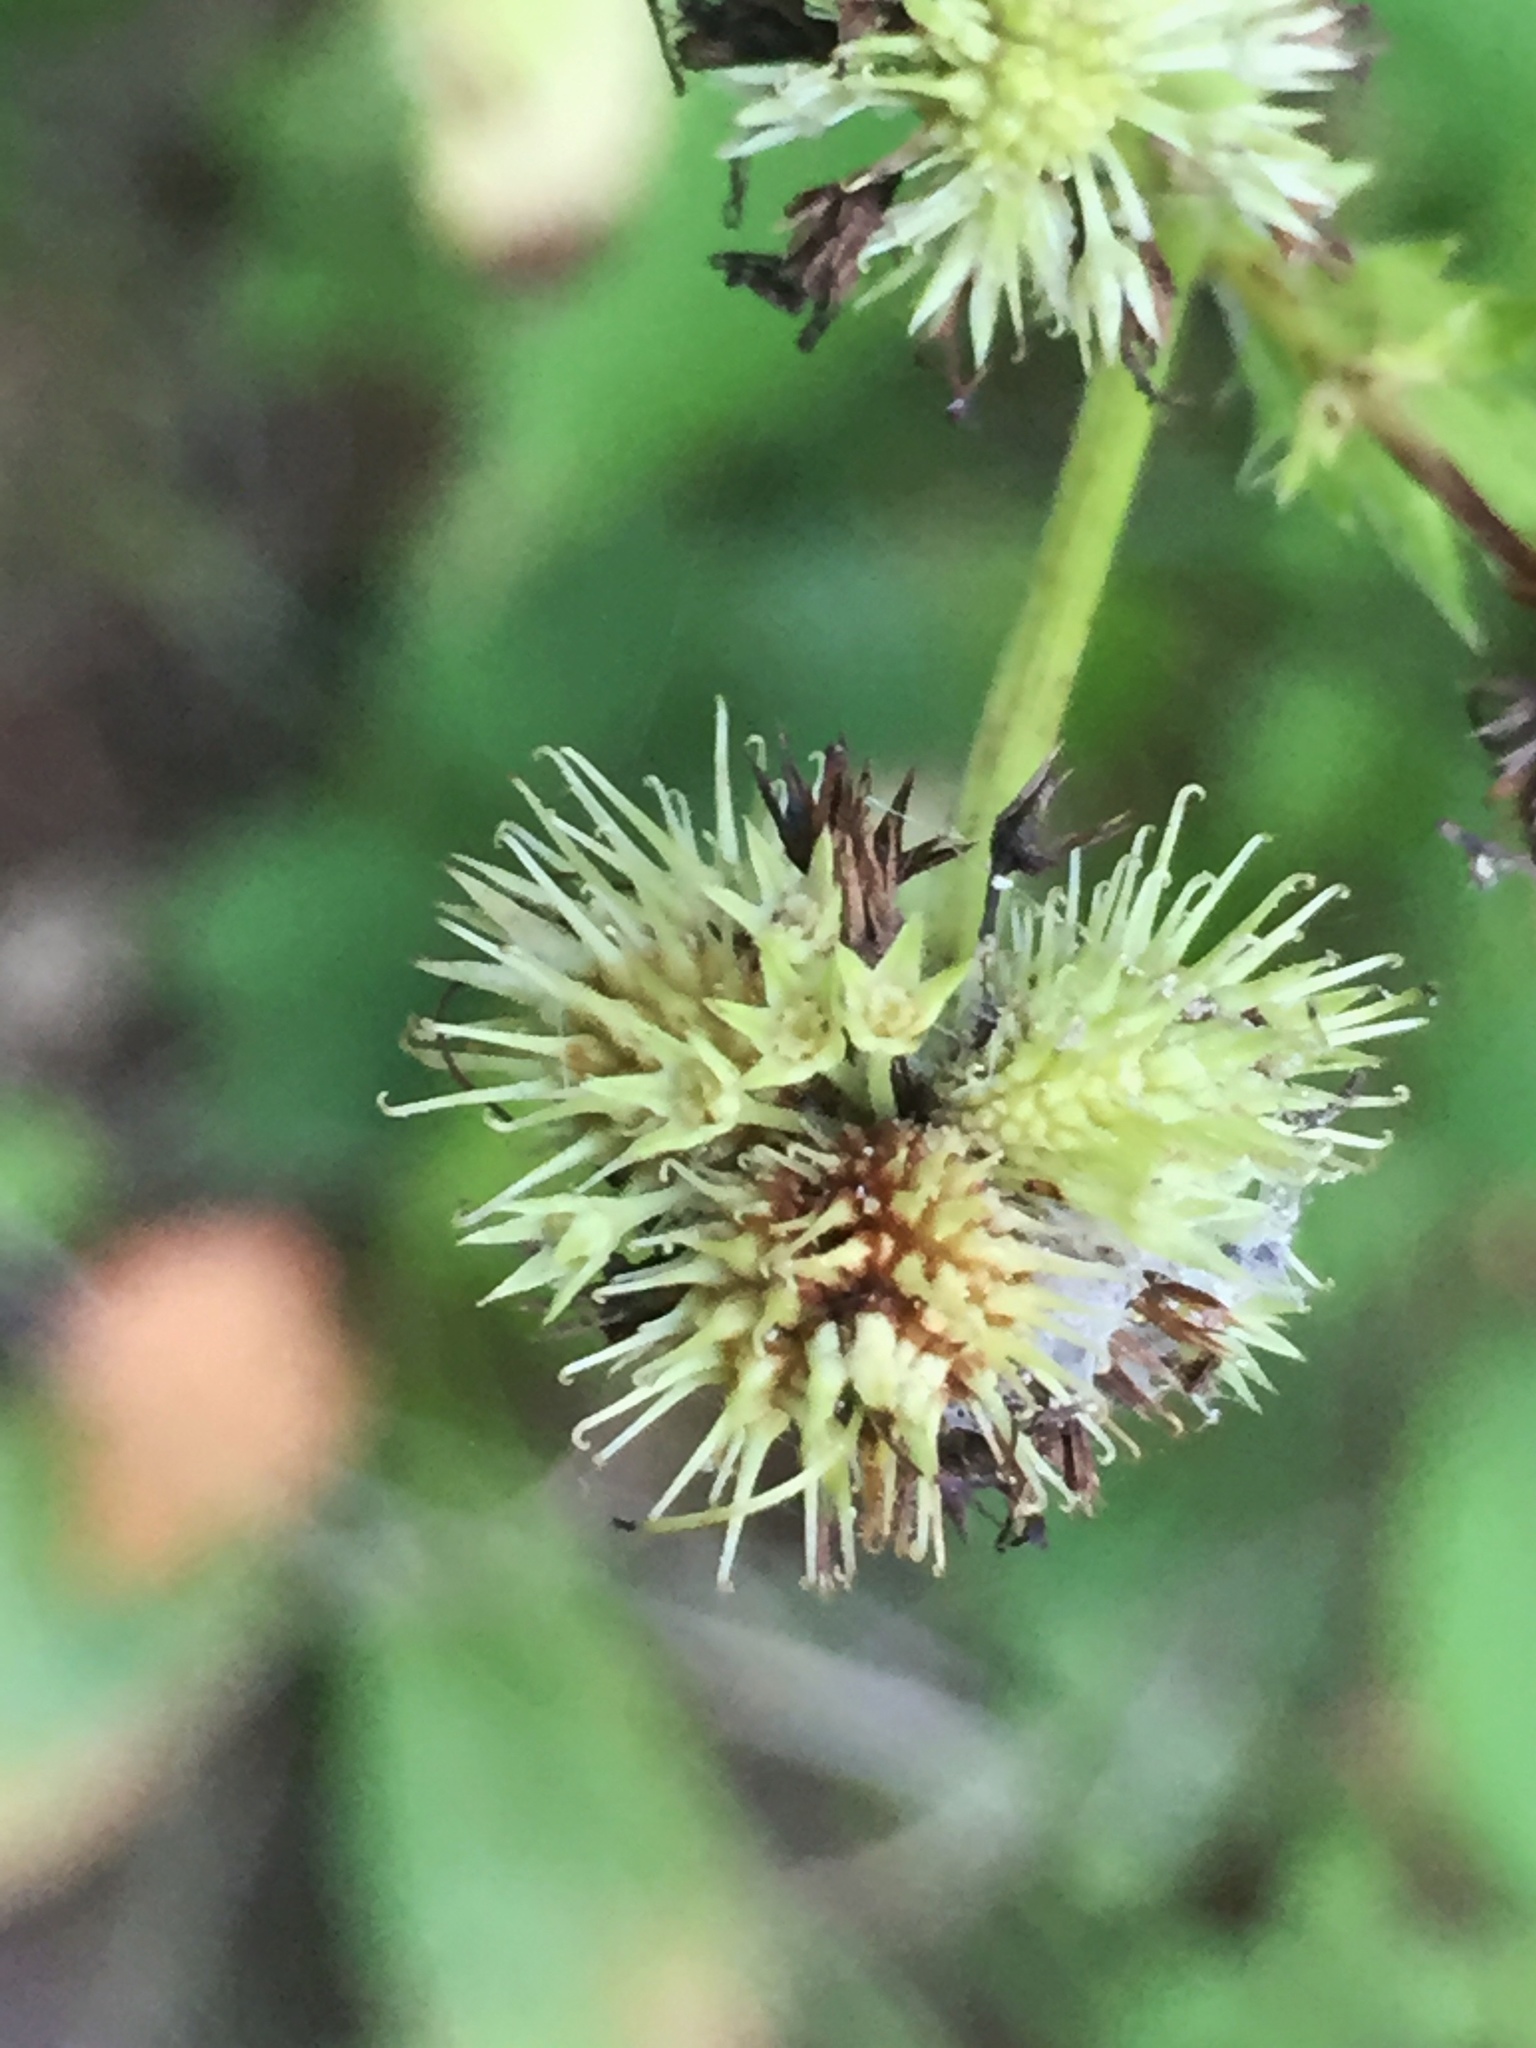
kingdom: Plantae
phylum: Tracheophyta
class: Magnoliopsida
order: Apiales
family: Apiaceae
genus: Sanicula
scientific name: Sanicula marilandica
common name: Black snakeroot
